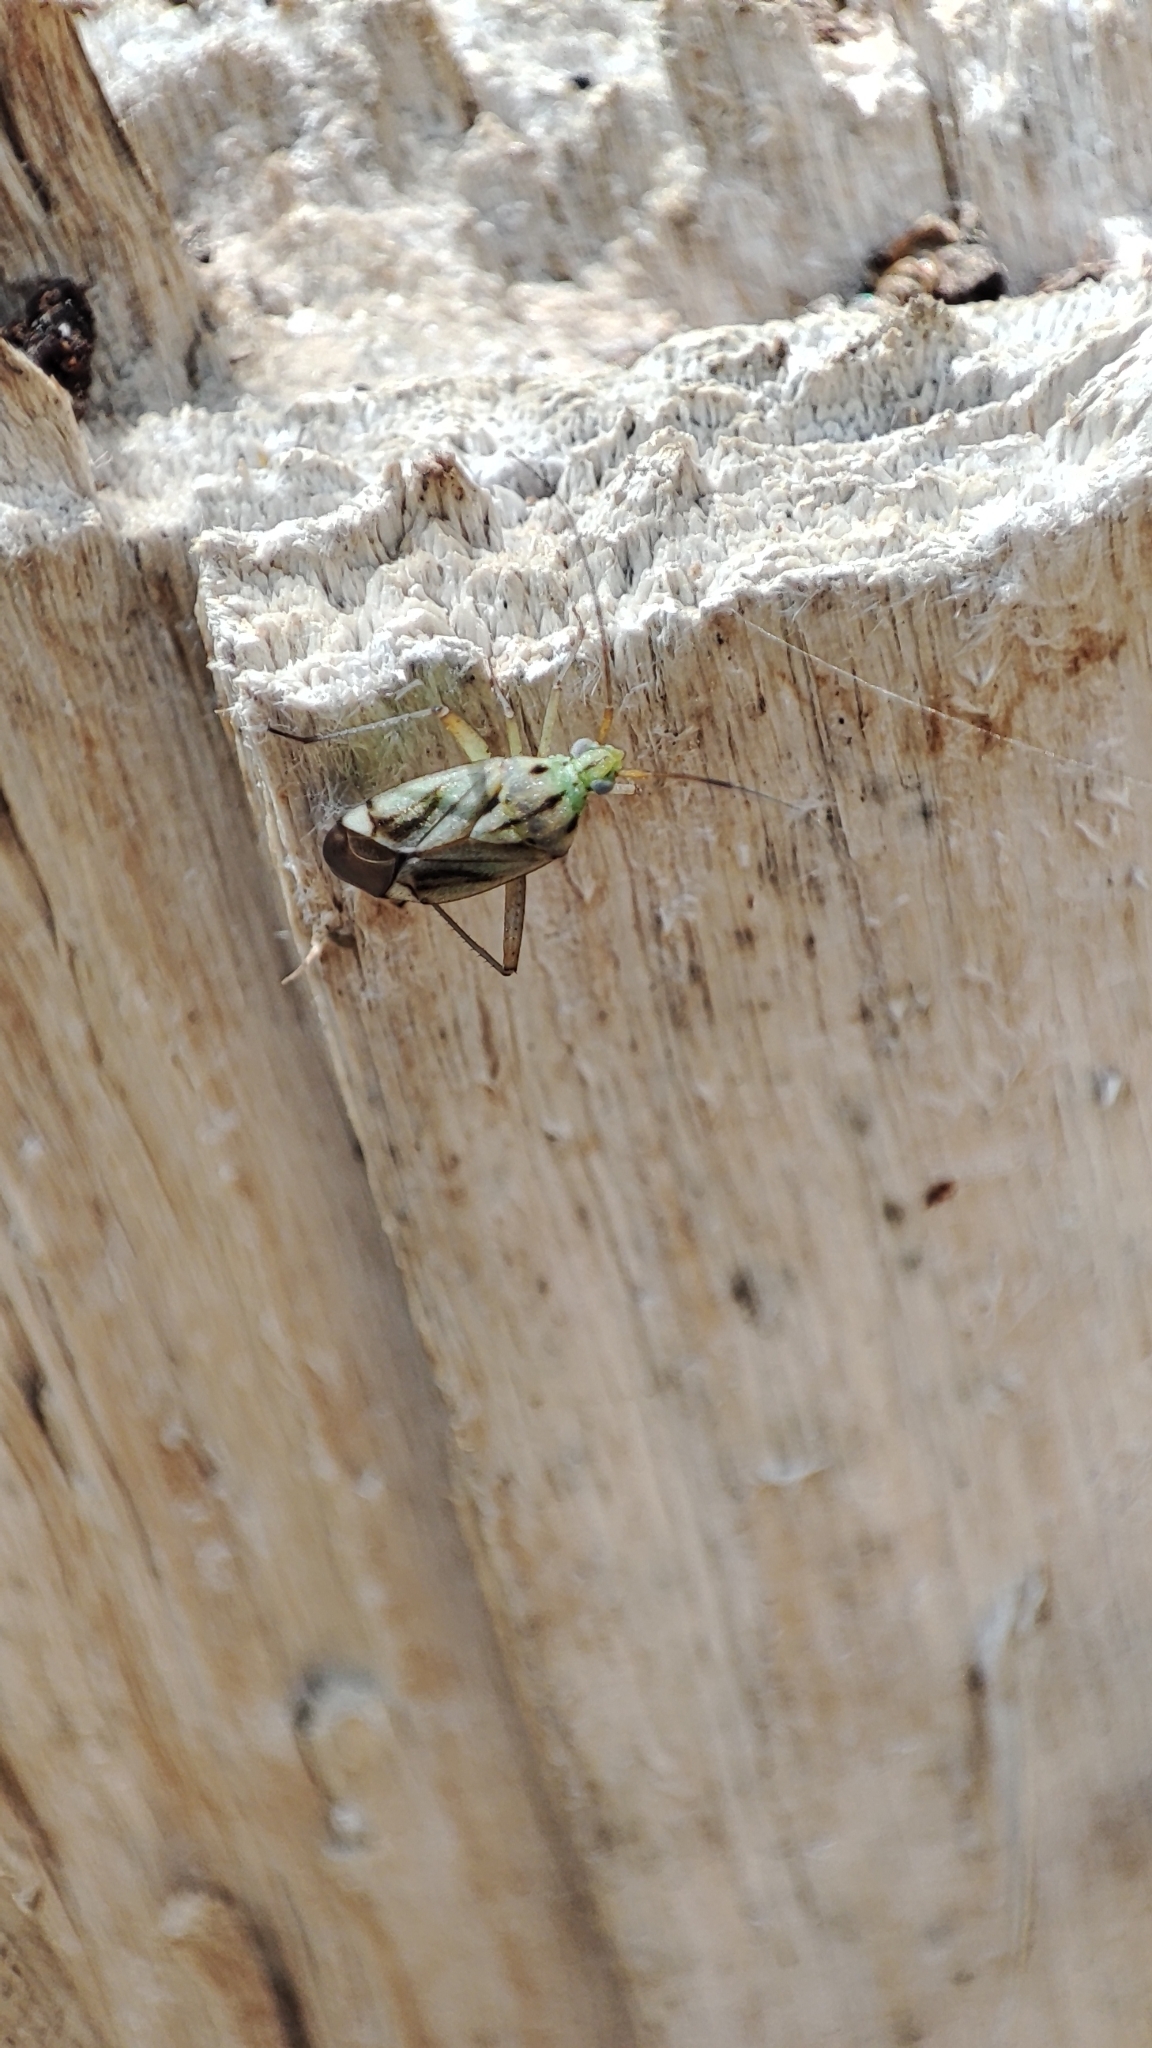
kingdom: Animalia
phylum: Arthropoda
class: Insecta
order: Hemiptera
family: Miridae
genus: Closterotomus
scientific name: Closterotomus putoni
